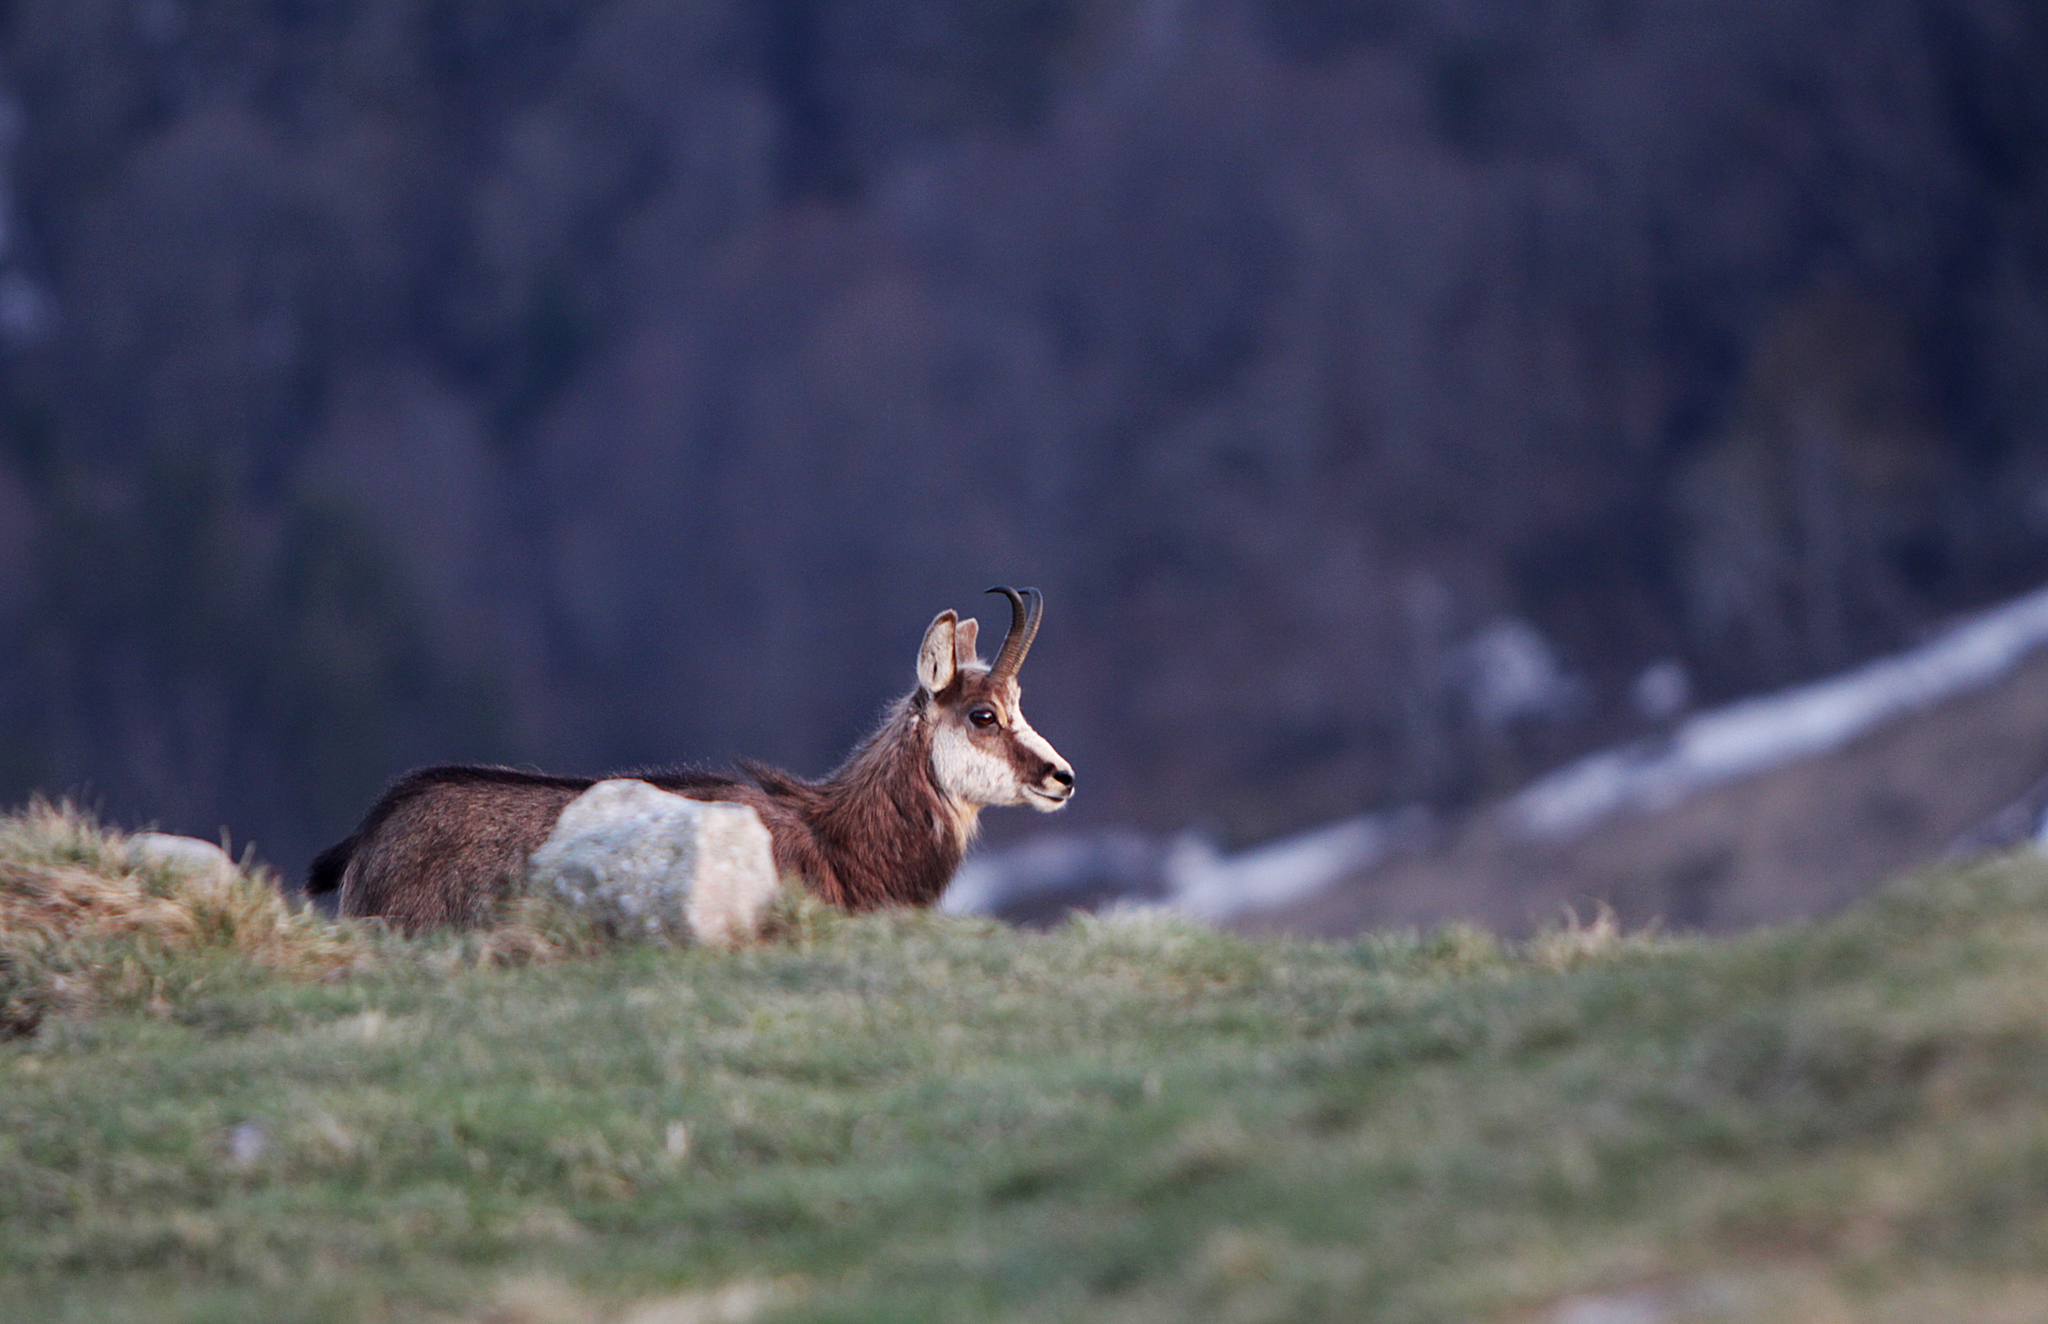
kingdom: Animalia
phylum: Chordata
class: Mammalia
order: Artiodactyla
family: Bovidae
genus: Rupicapra
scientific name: Rupicapra rupicapra
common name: Chamois
